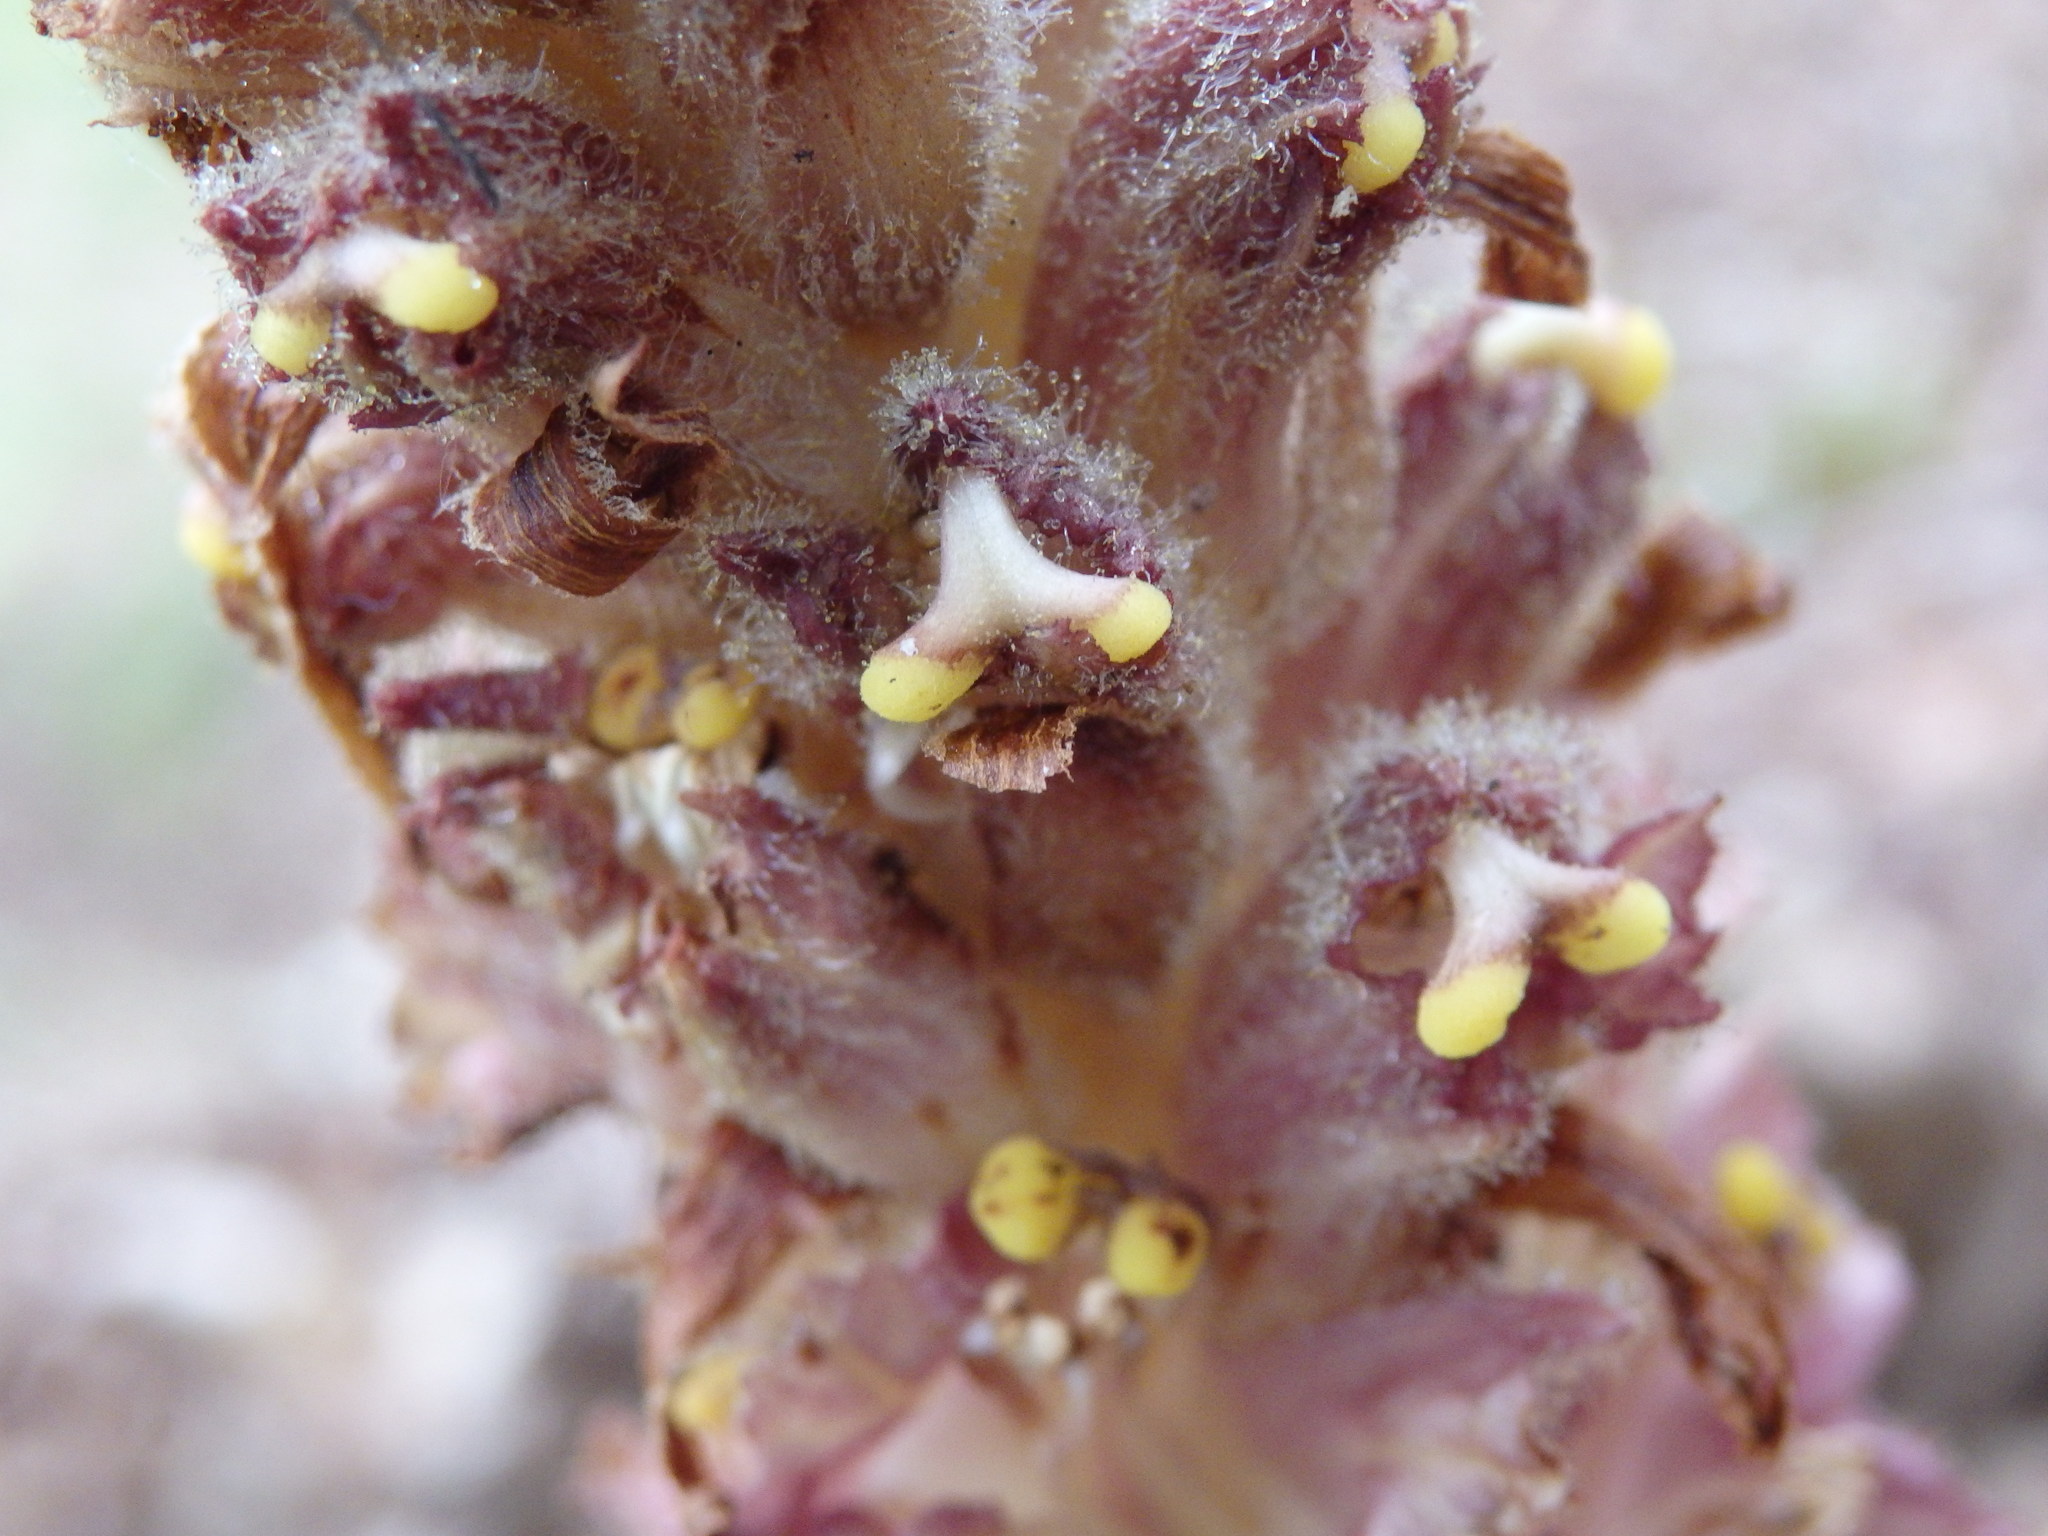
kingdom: Plantae
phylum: Tracheophyta
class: Magnoliopsida
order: Lamiales
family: Orobanchaceae
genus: Orobanche
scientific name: Orobanche rapum-genistae
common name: Greater broomrape
